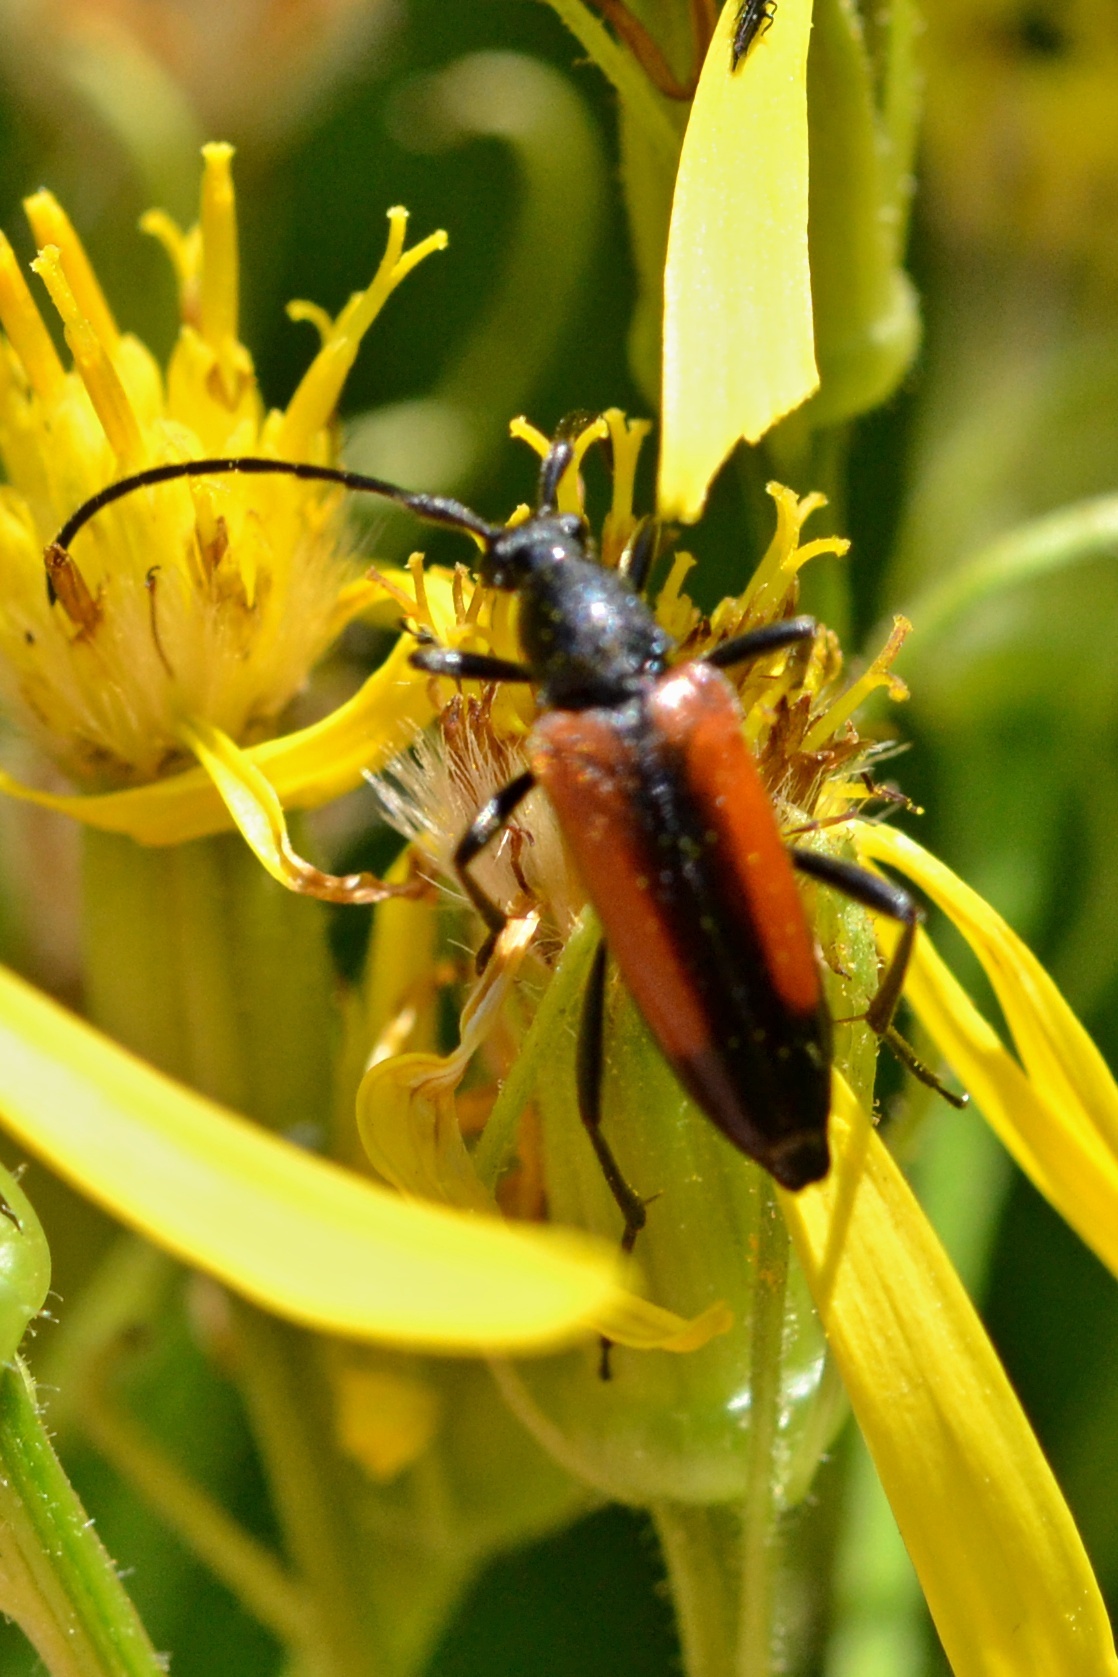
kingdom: Animalia
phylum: Arthropoda
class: Insecta
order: Coleoptera
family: Cerambycidae
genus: Stenurella
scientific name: Stenurella melanura
